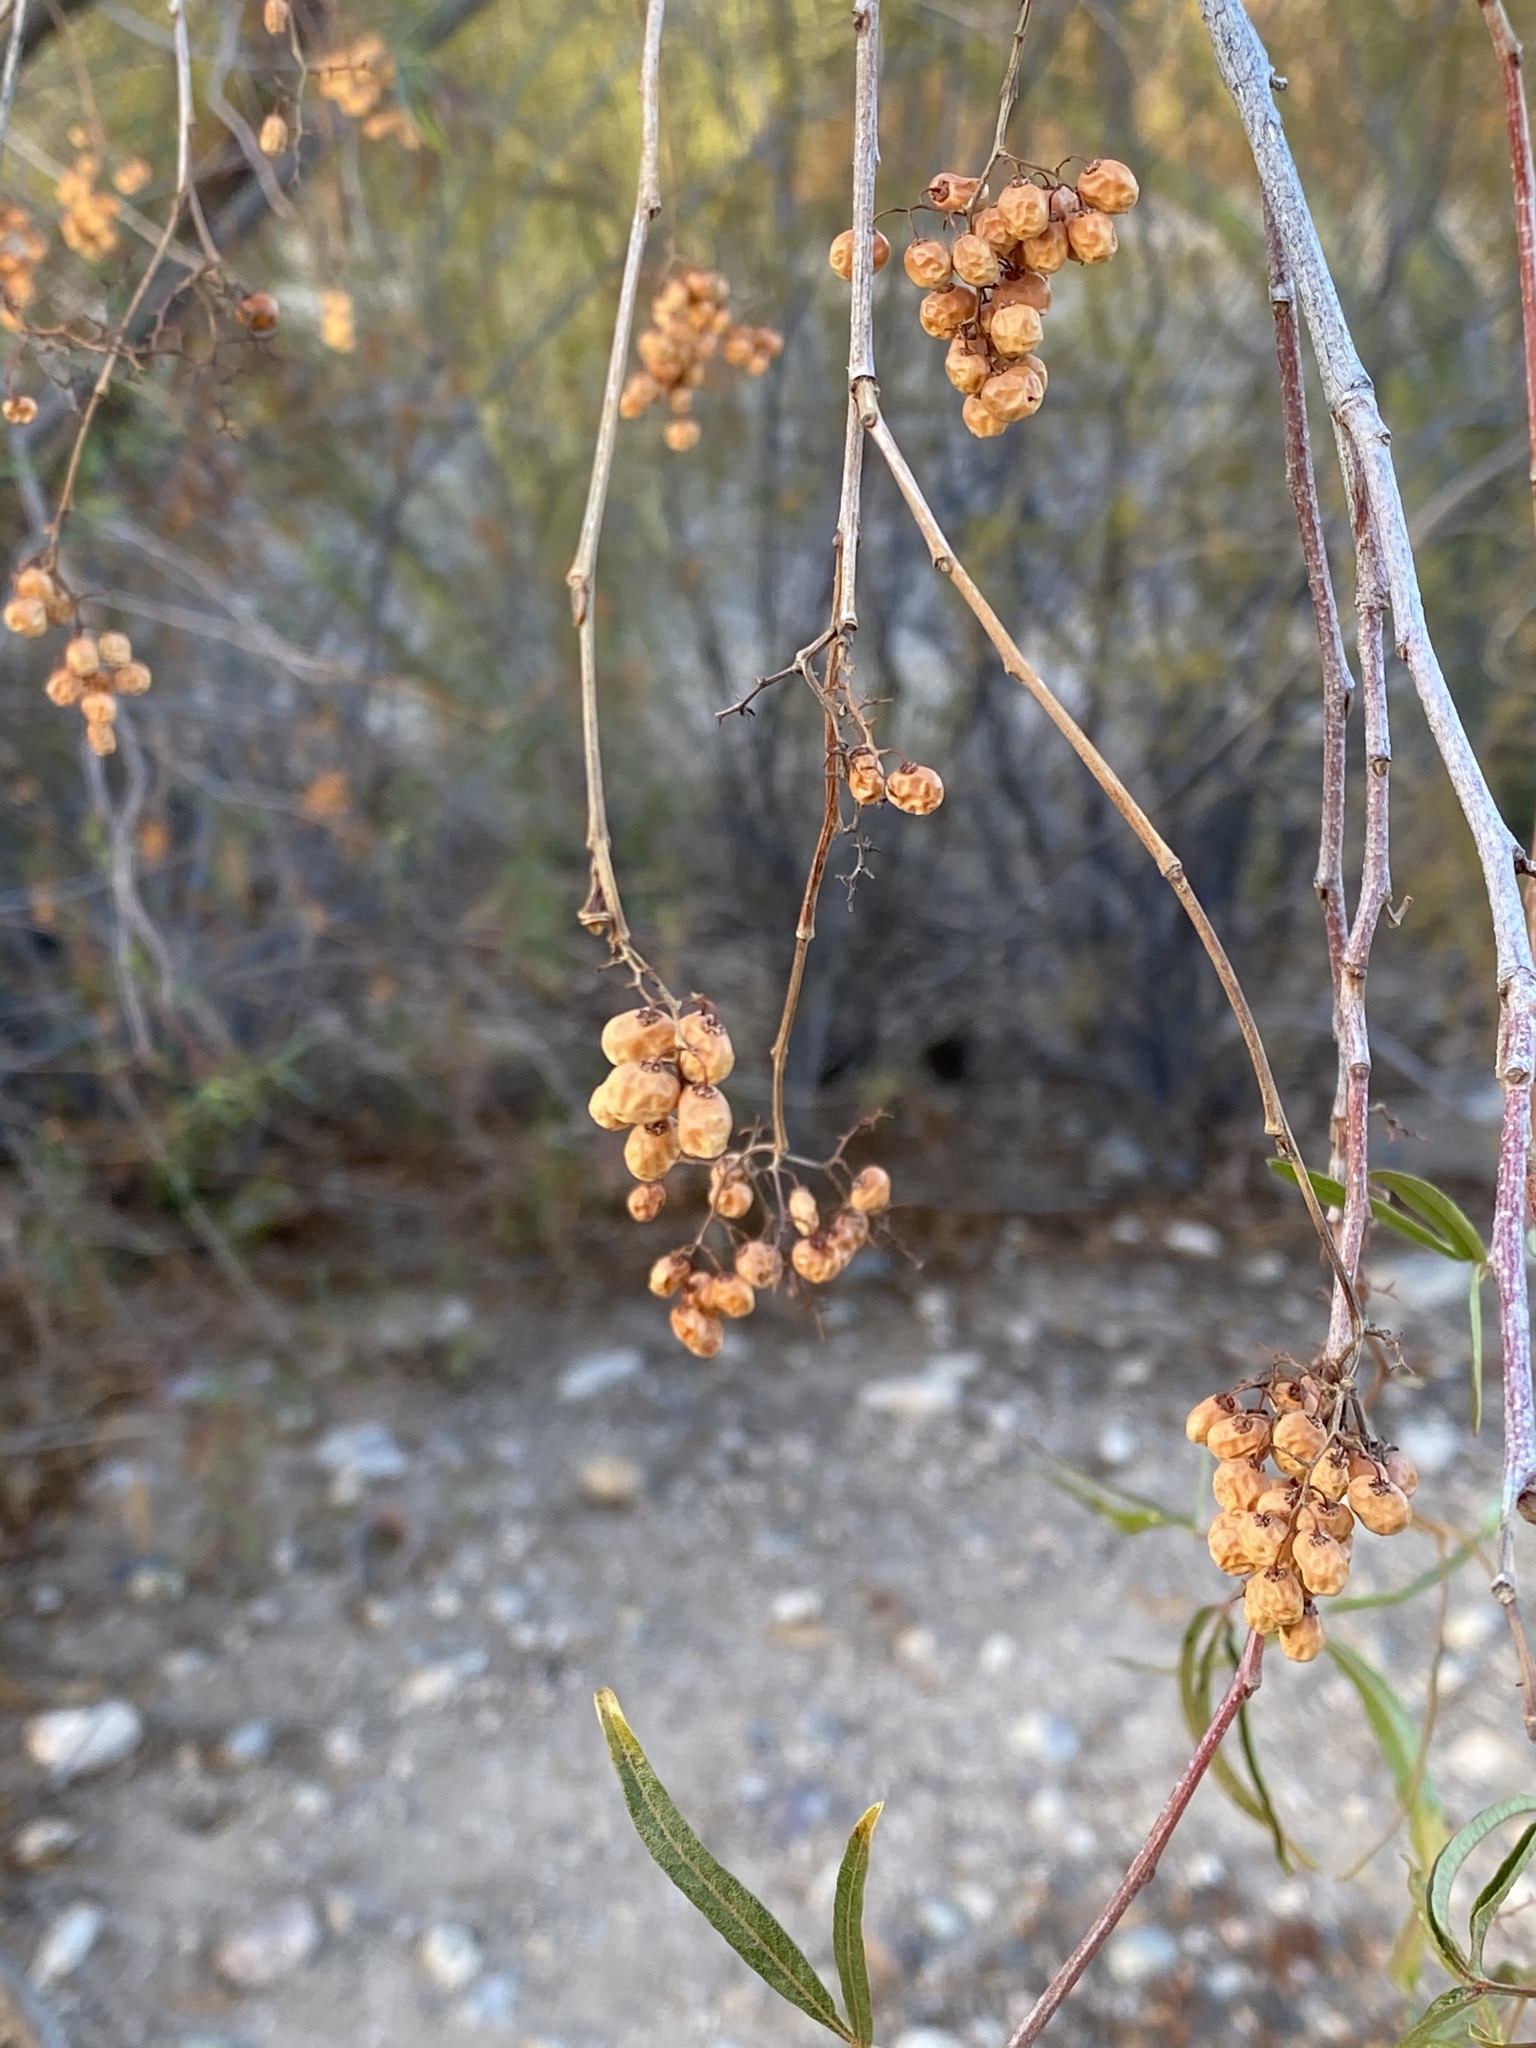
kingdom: Plantae
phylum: Tracheophyta
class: Magnoliopsida
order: Sapindales
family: Anacardiaceae
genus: Searsia
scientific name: Searsia lancea
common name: Cashew
